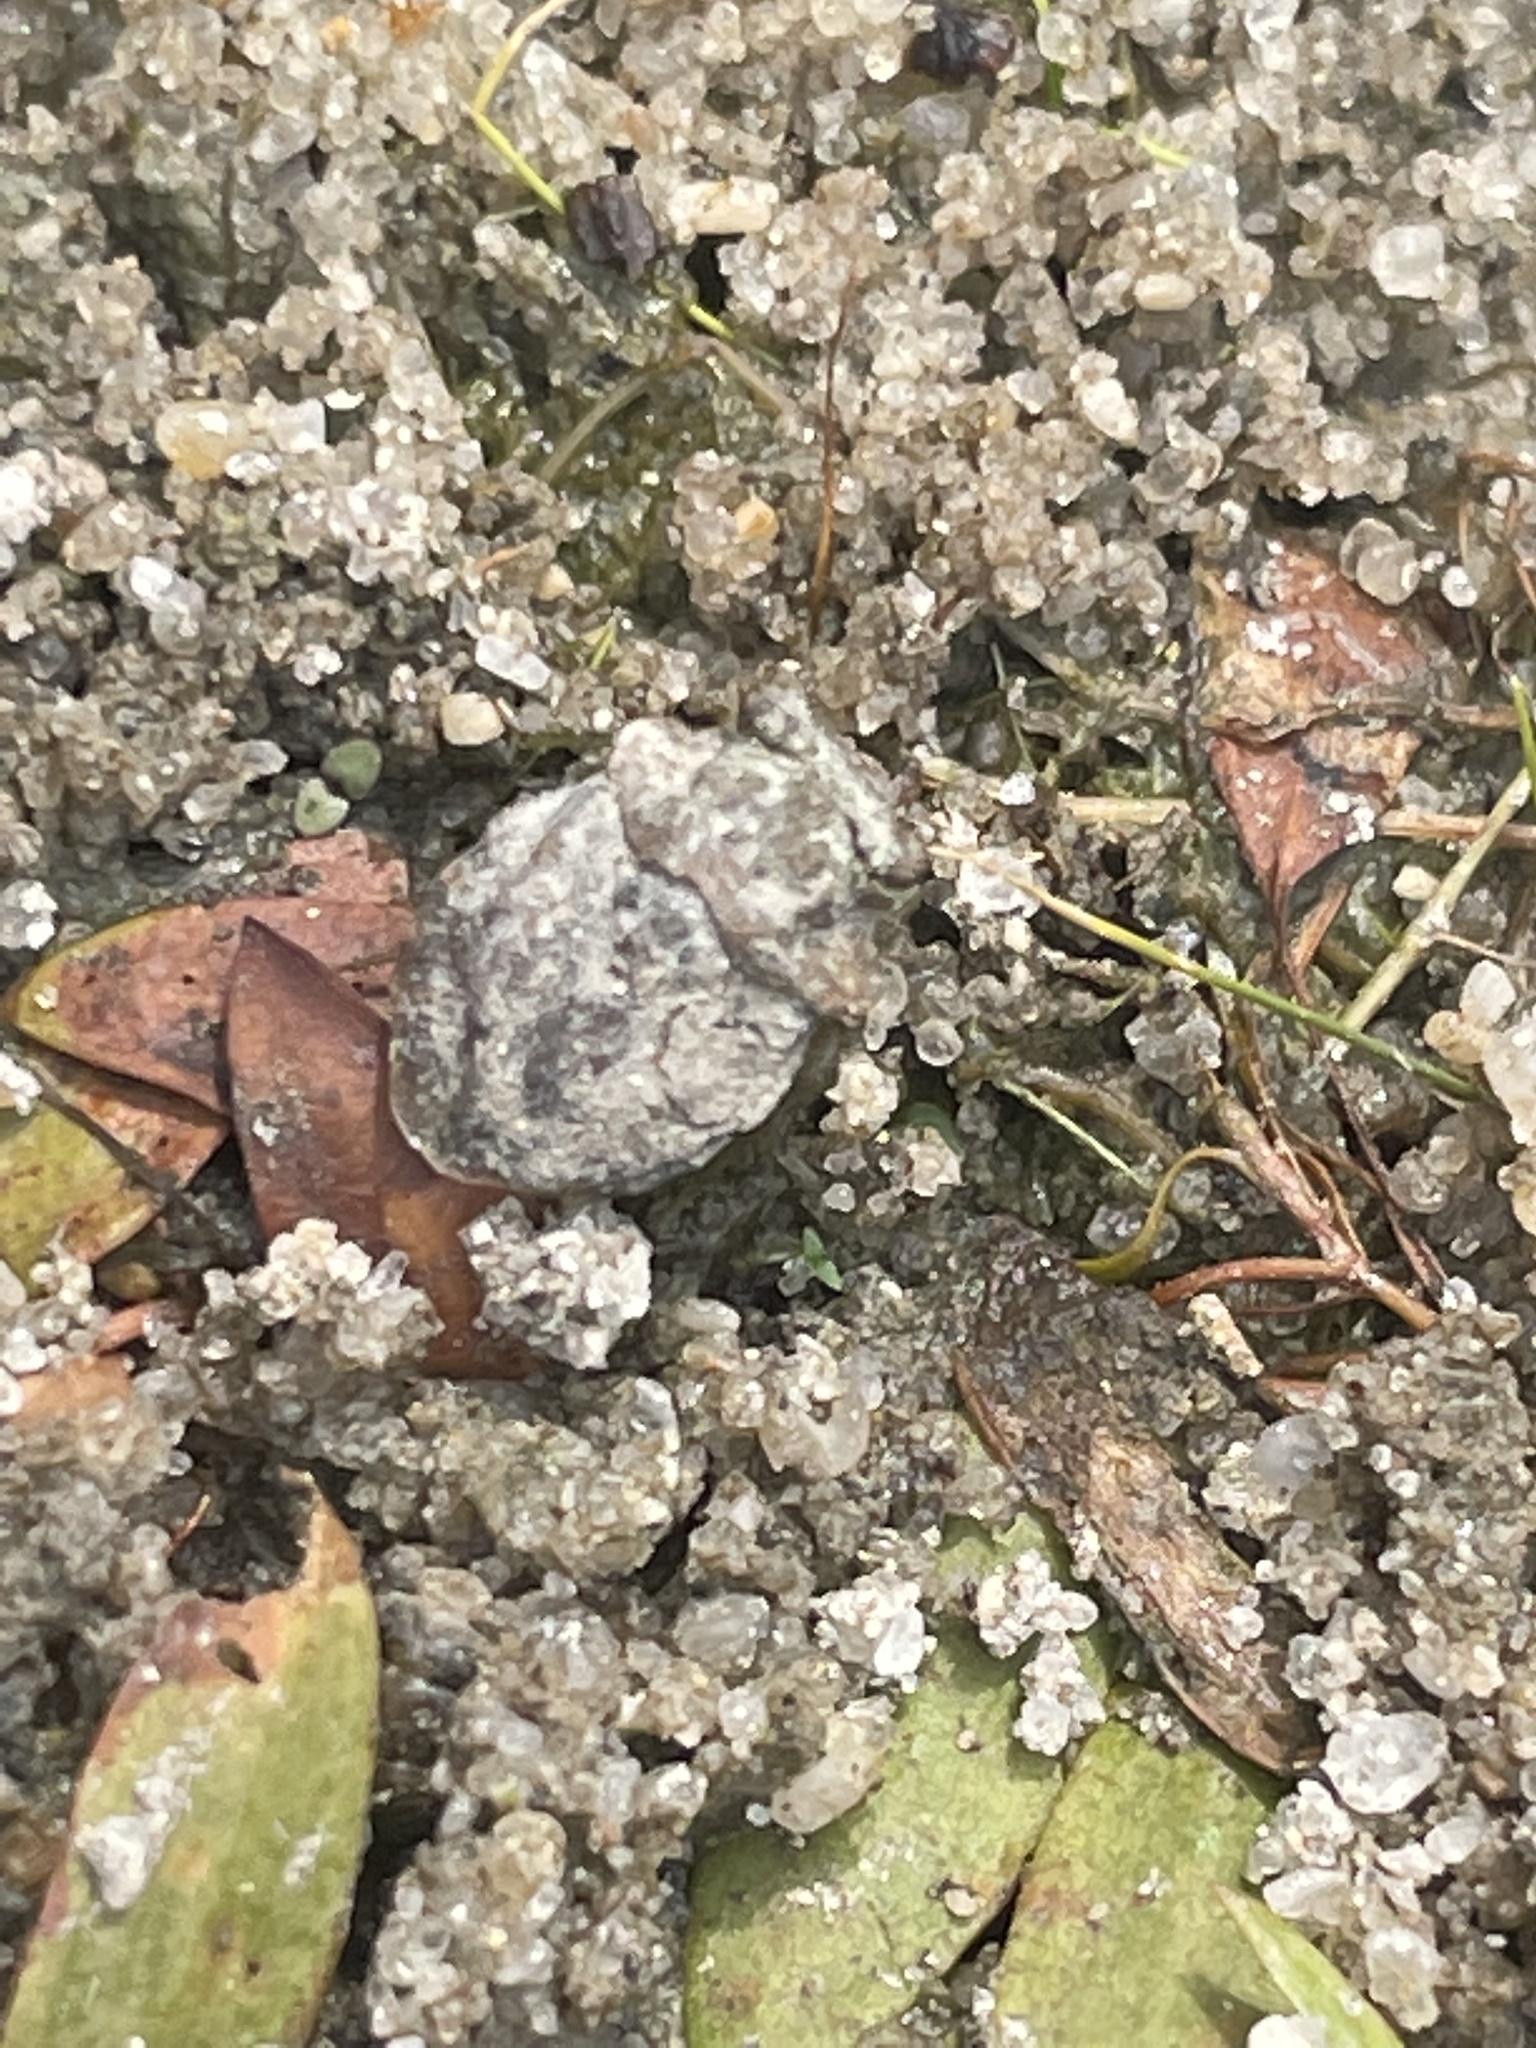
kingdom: Animalia
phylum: Arthropoda
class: Insecta
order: Hemiptera
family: Gelastocoridae
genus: Gelastocoris
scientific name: Gelastocoris oculatus
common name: Toad bug
